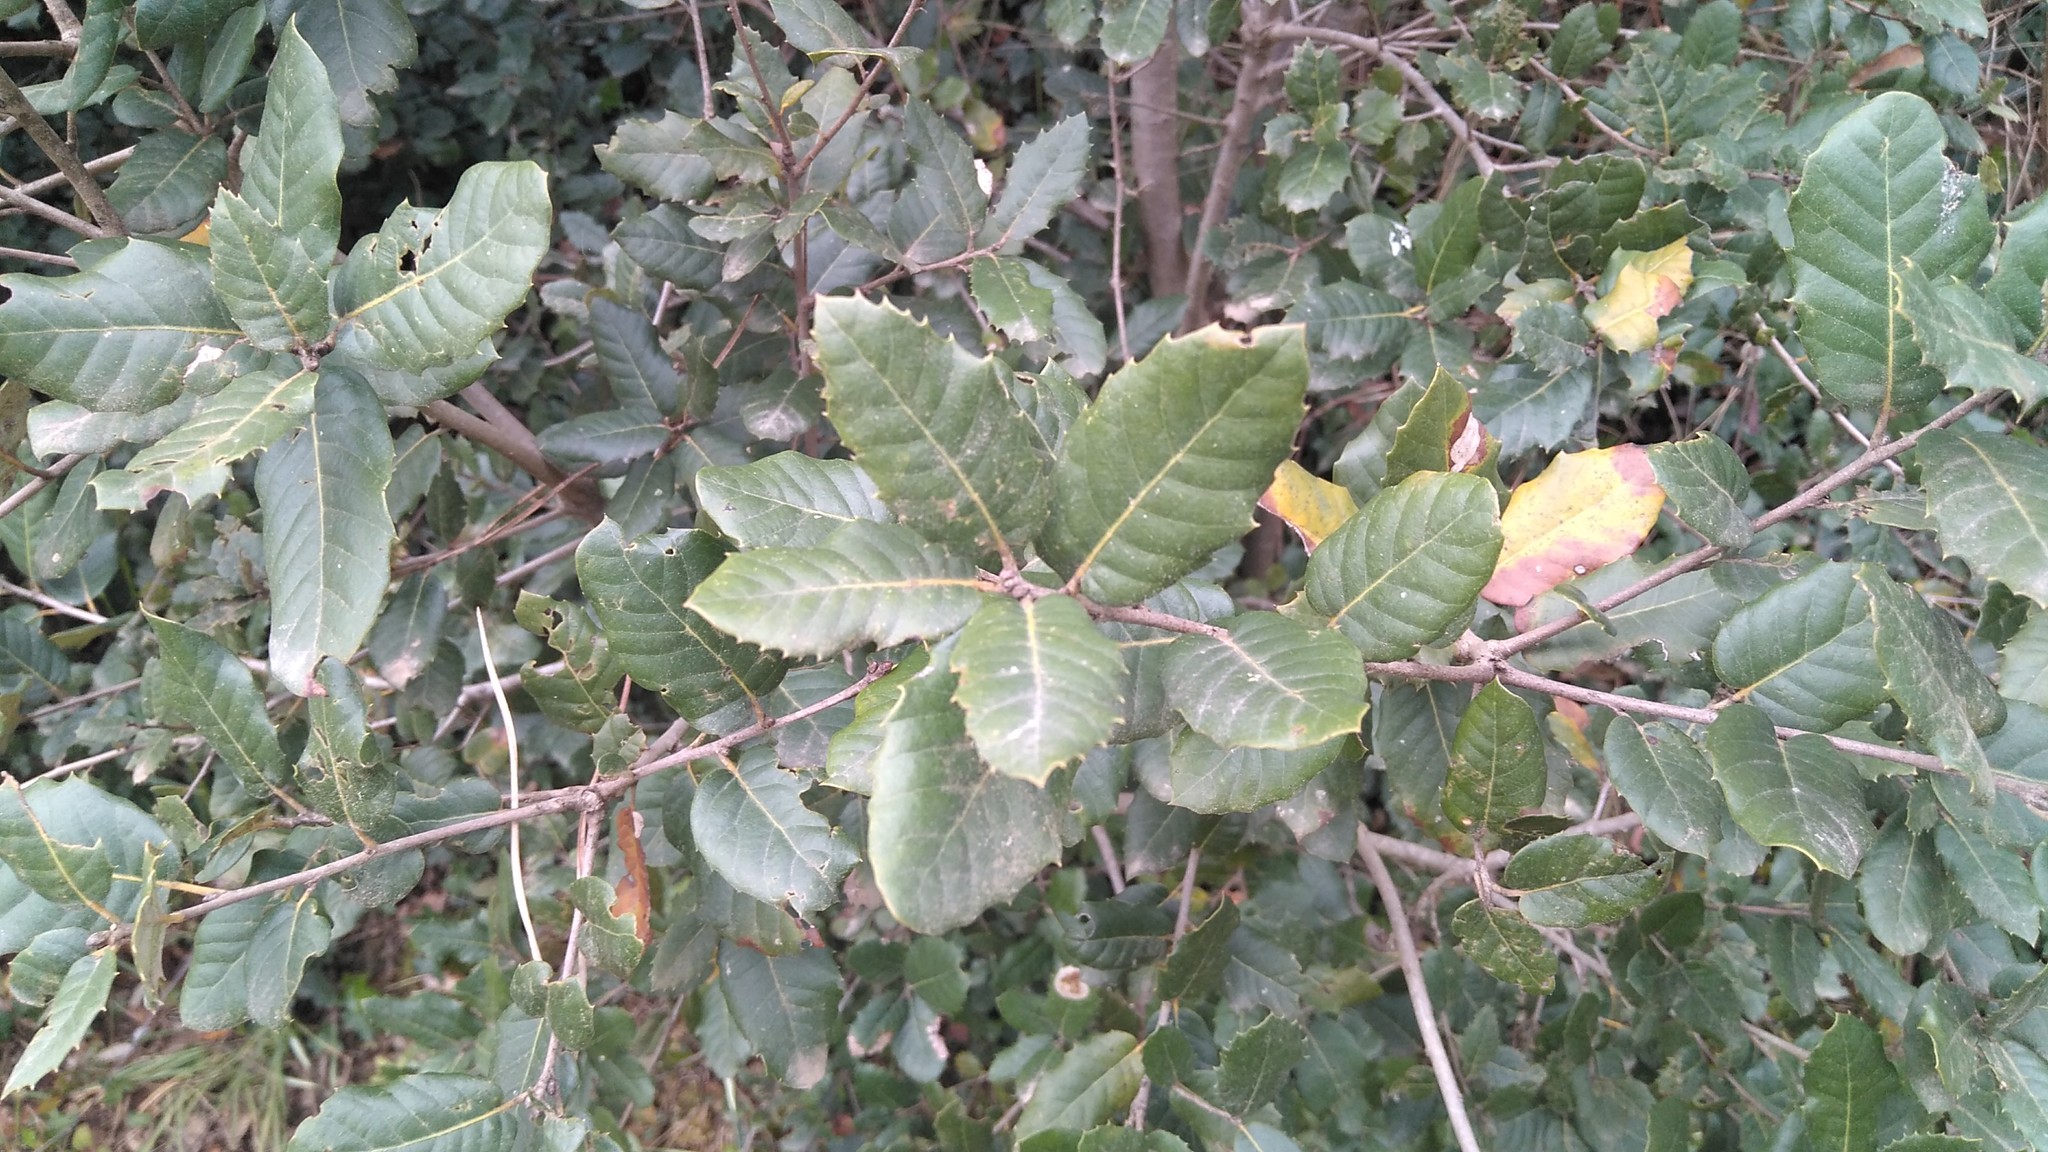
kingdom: Plantae
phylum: Tracheophyta
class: Magnoliopsida
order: Fagales
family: Fagaceae
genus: Quercus
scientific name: Quercus ilex
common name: Evergreen oak
